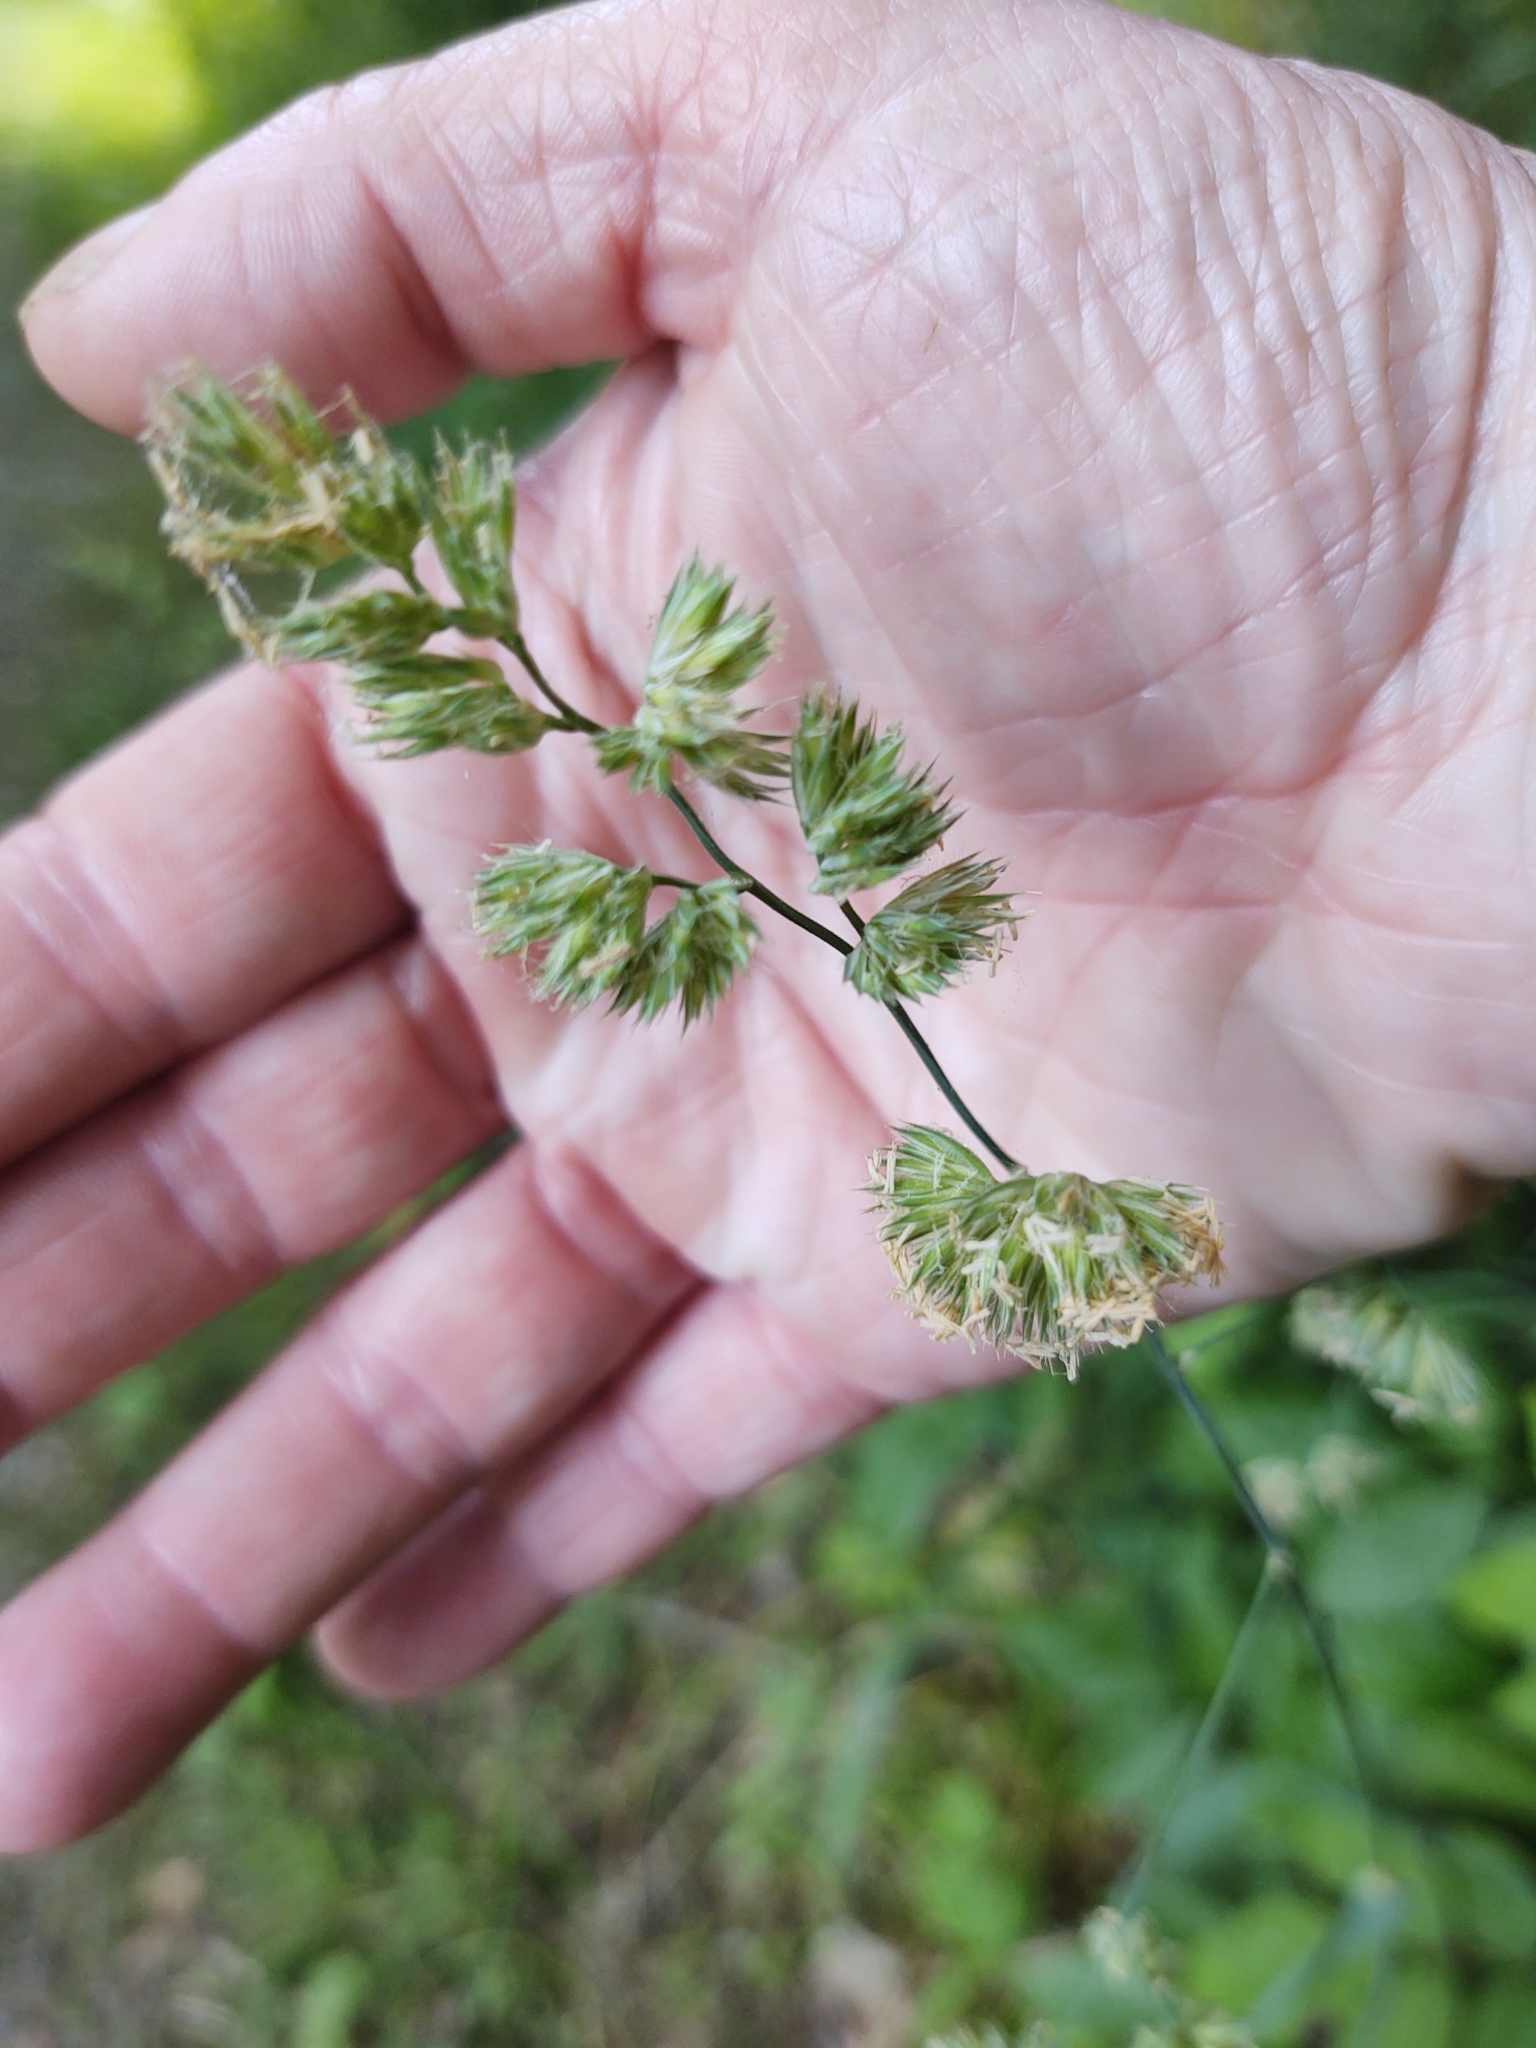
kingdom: Plantae
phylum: Tracheophyta
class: Liliopsida
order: Poales
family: Poaceae
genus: Dactylis
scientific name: Dactylis glomerata
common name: Orchardgrass
